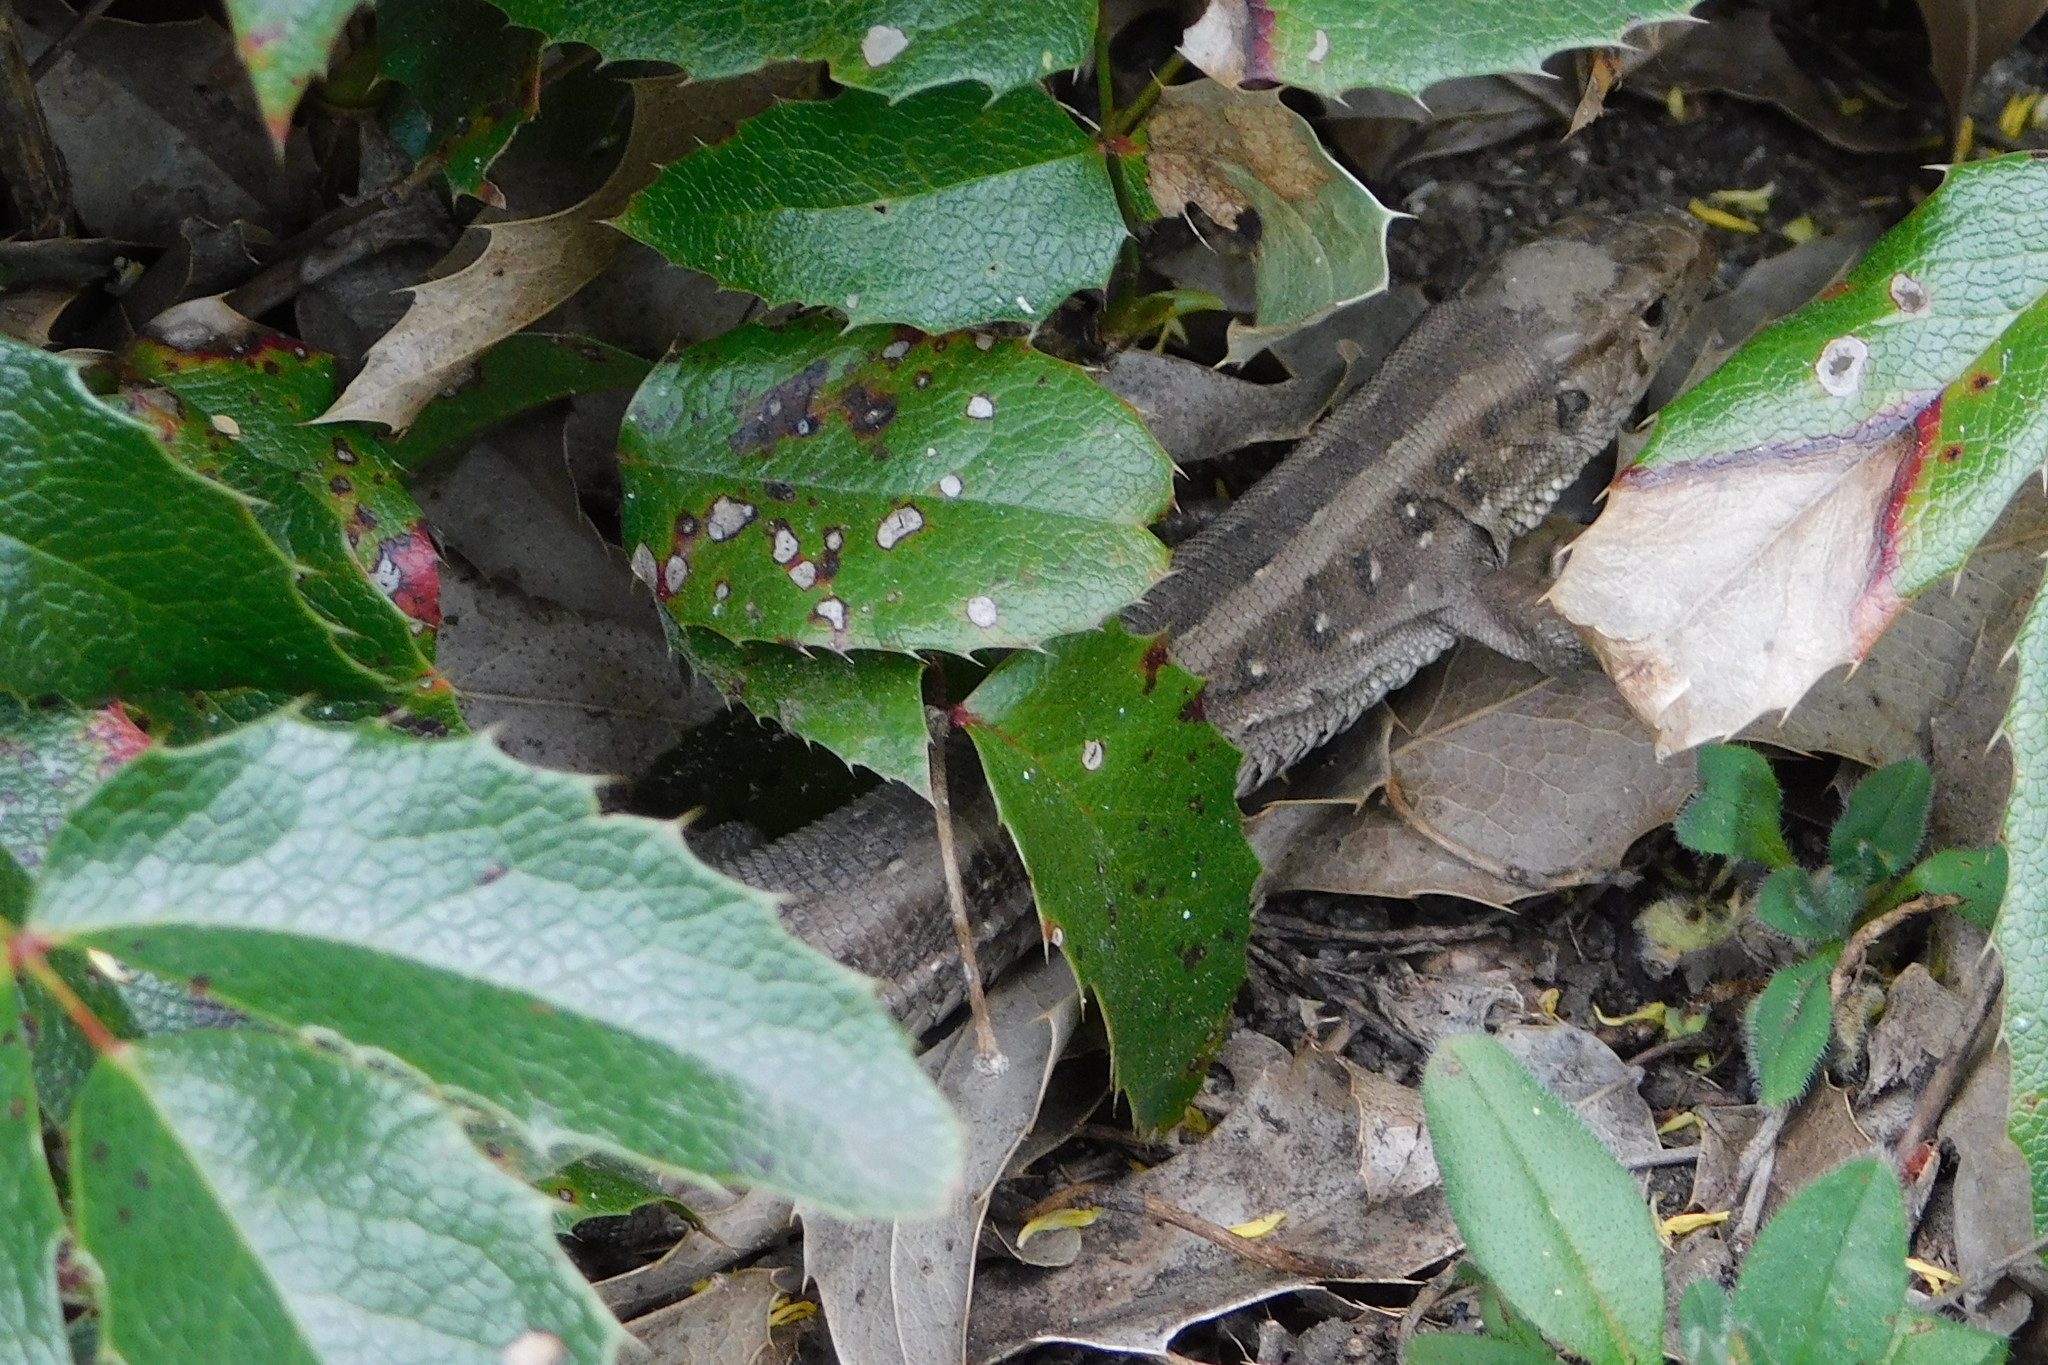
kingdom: Animalia
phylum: Chordata
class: Squamata
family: Lacertidae
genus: Lacerta
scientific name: Lacerta agilis
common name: Sand lizard
